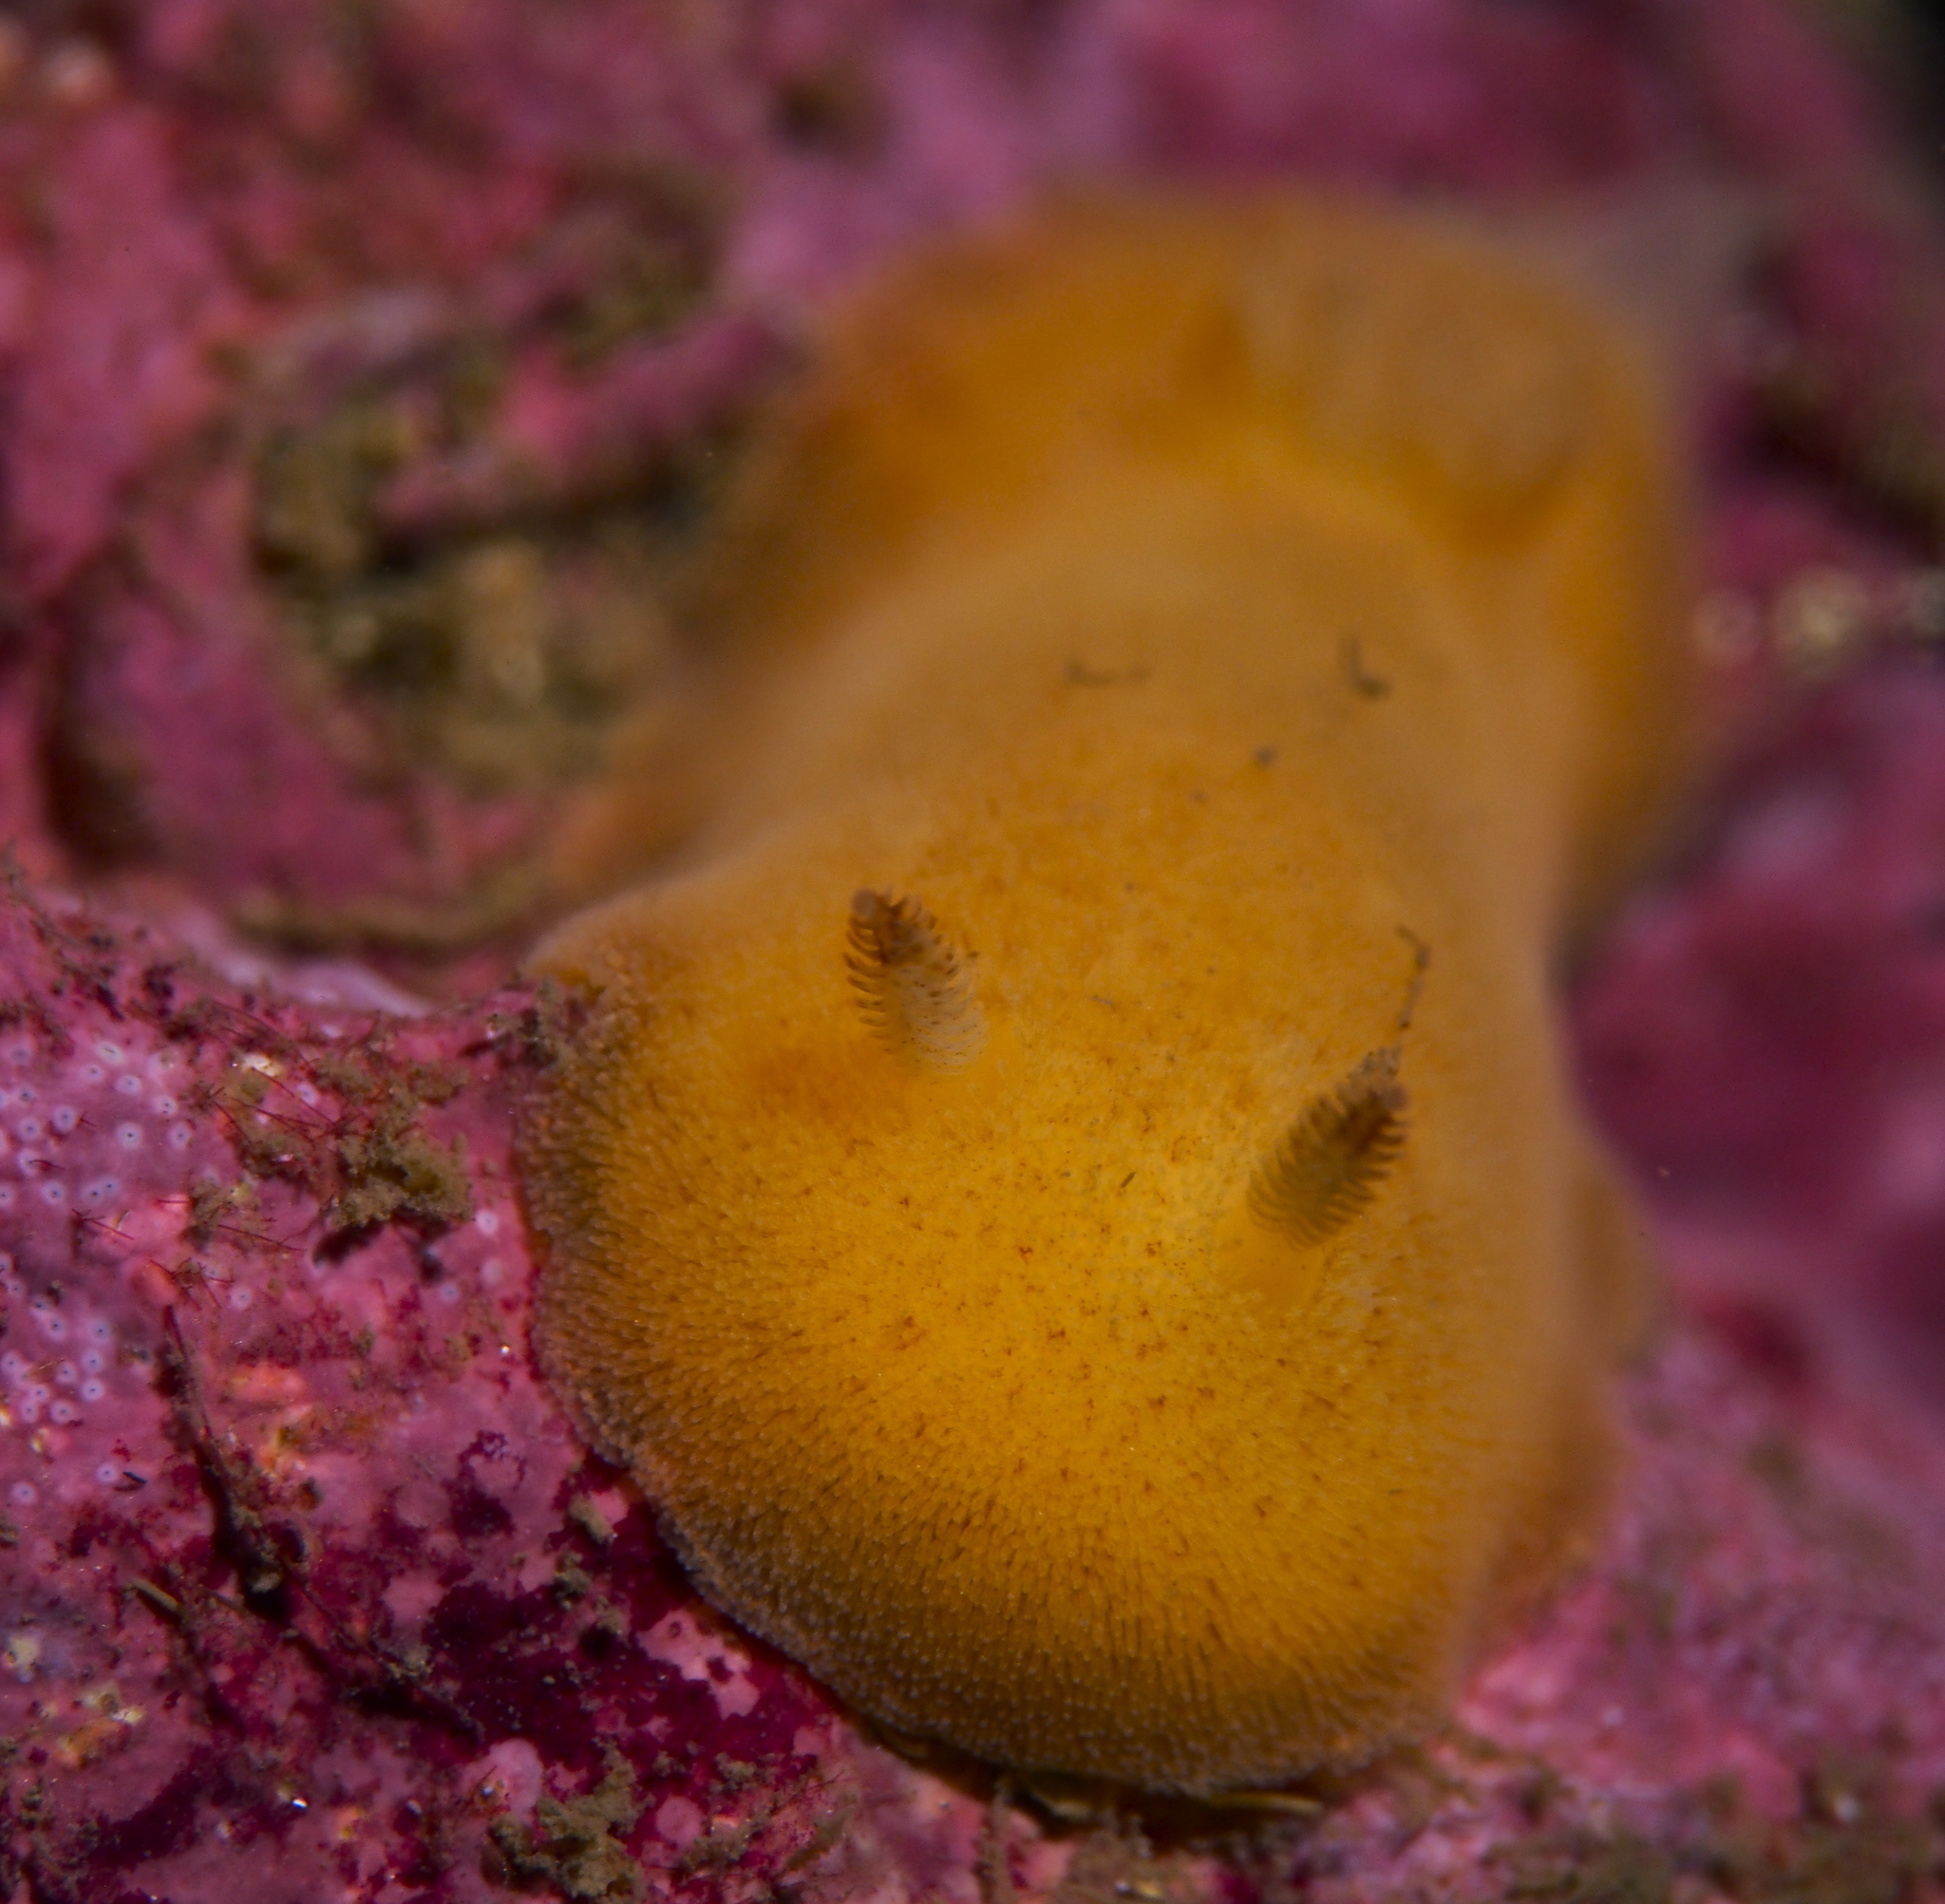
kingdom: Animalia
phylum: Mollusca
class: Gastropoda
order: Nudibranchia
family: Discodorididae
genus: Jorunna
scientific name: Jorunna tomentosa
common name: Grey sea slug
